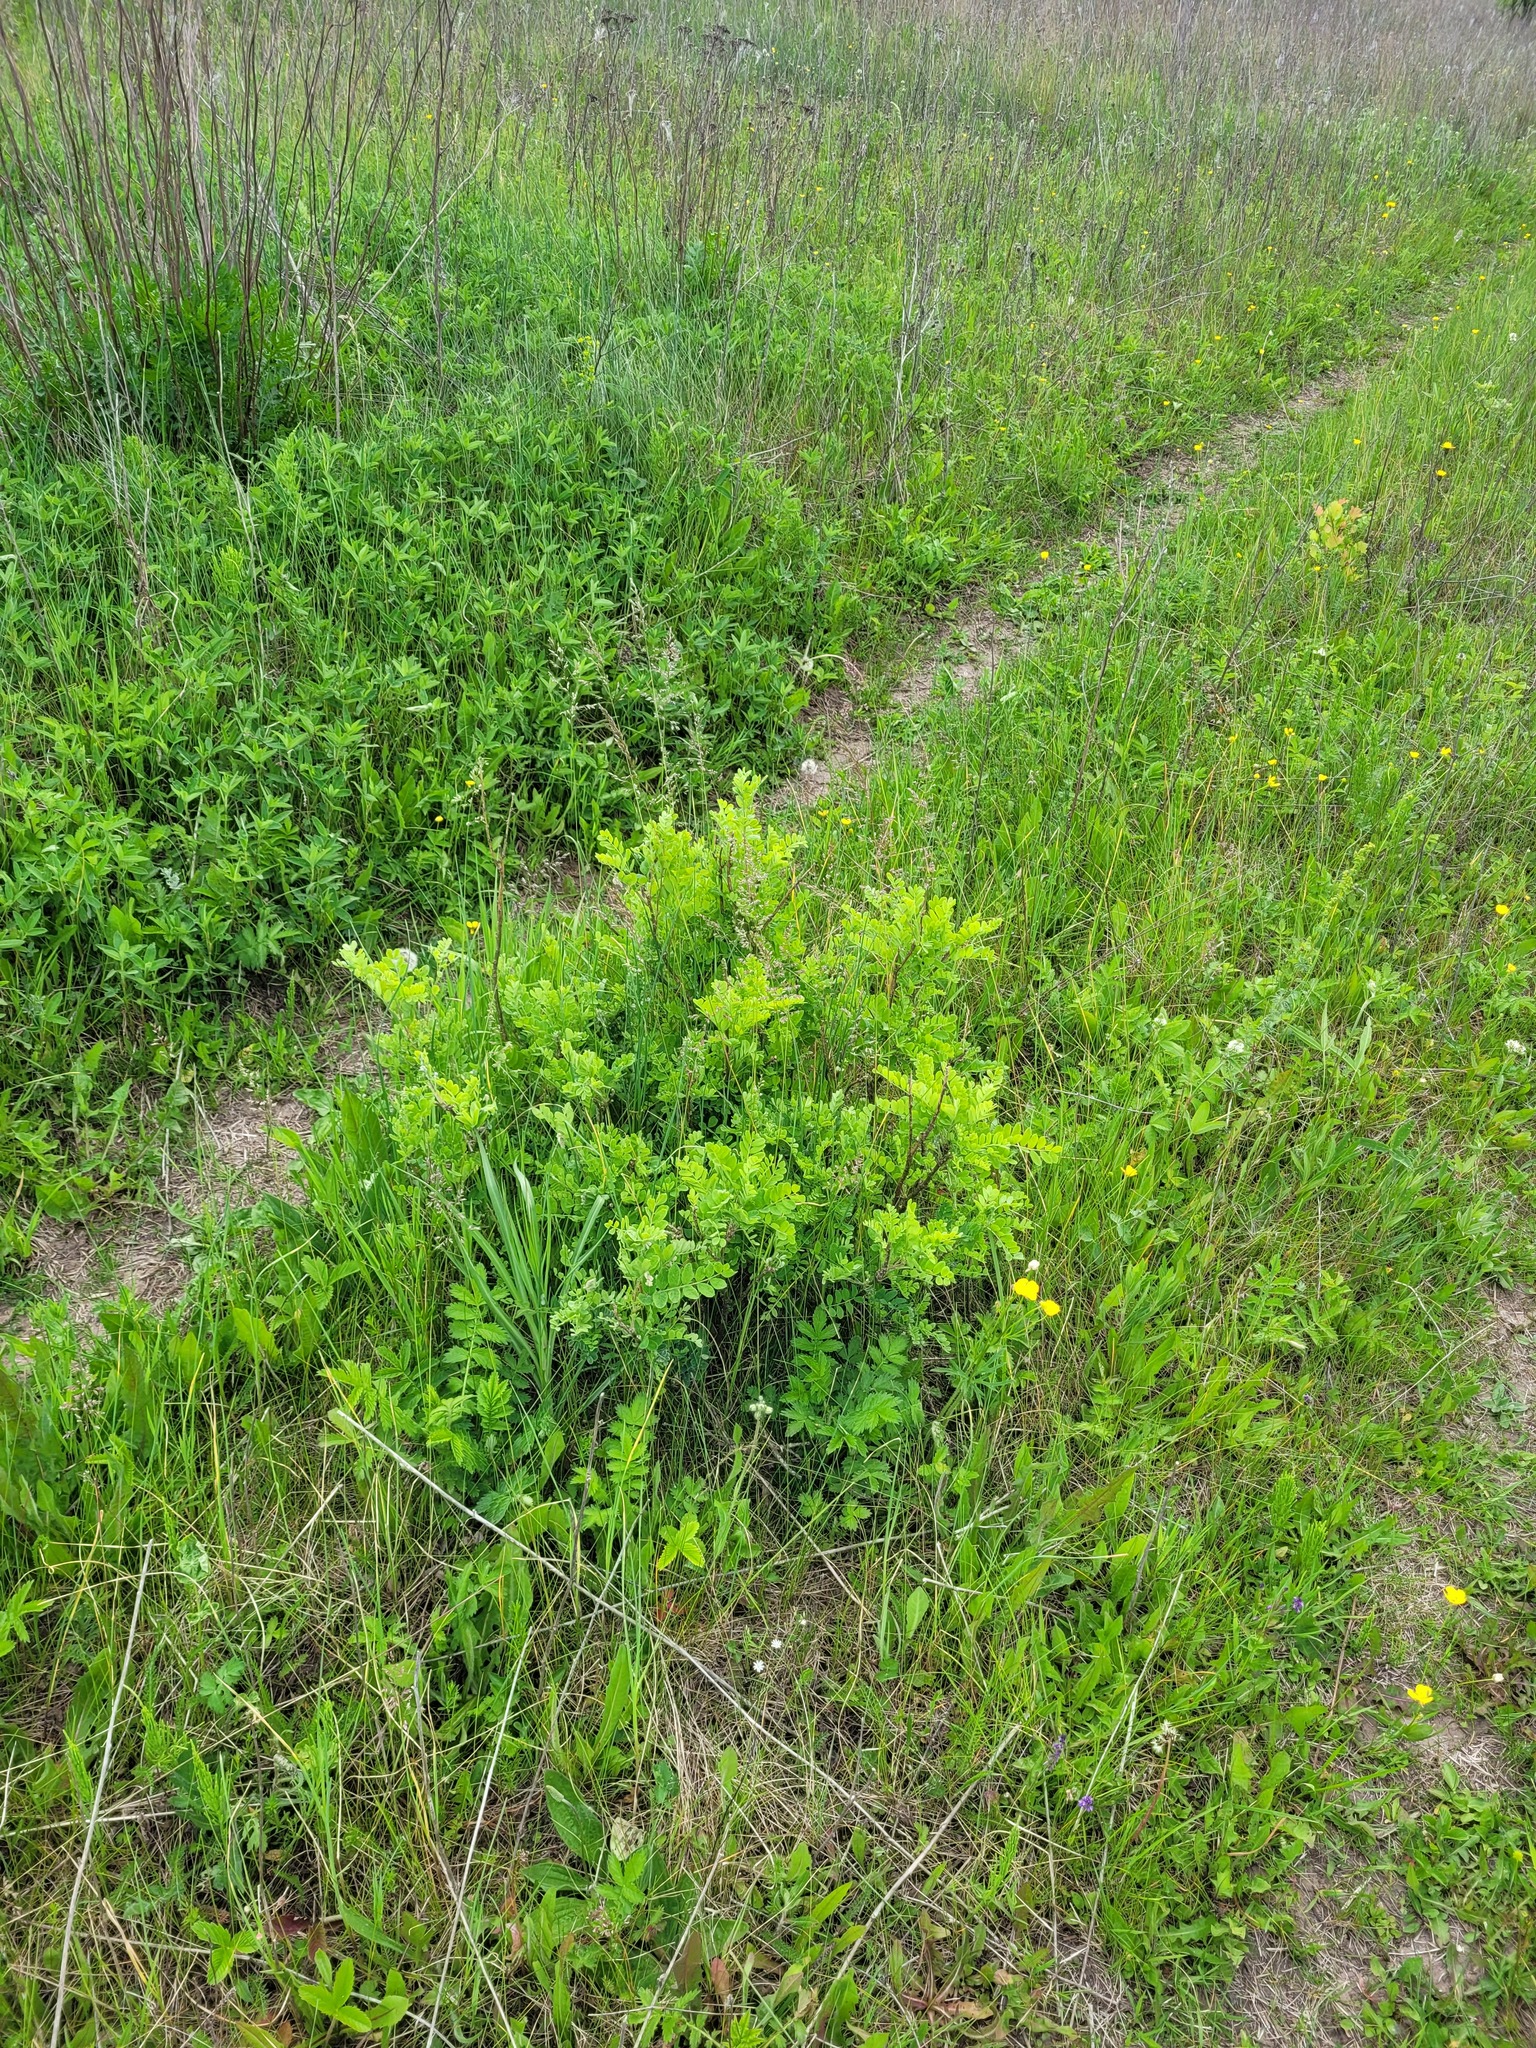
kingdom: Plantae
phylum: Tracheophyta
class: Magnoliopsida
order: Fabales
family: Fabaceae
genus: Caragana
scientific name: Caragana arborescens
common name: Siberian peashrub
